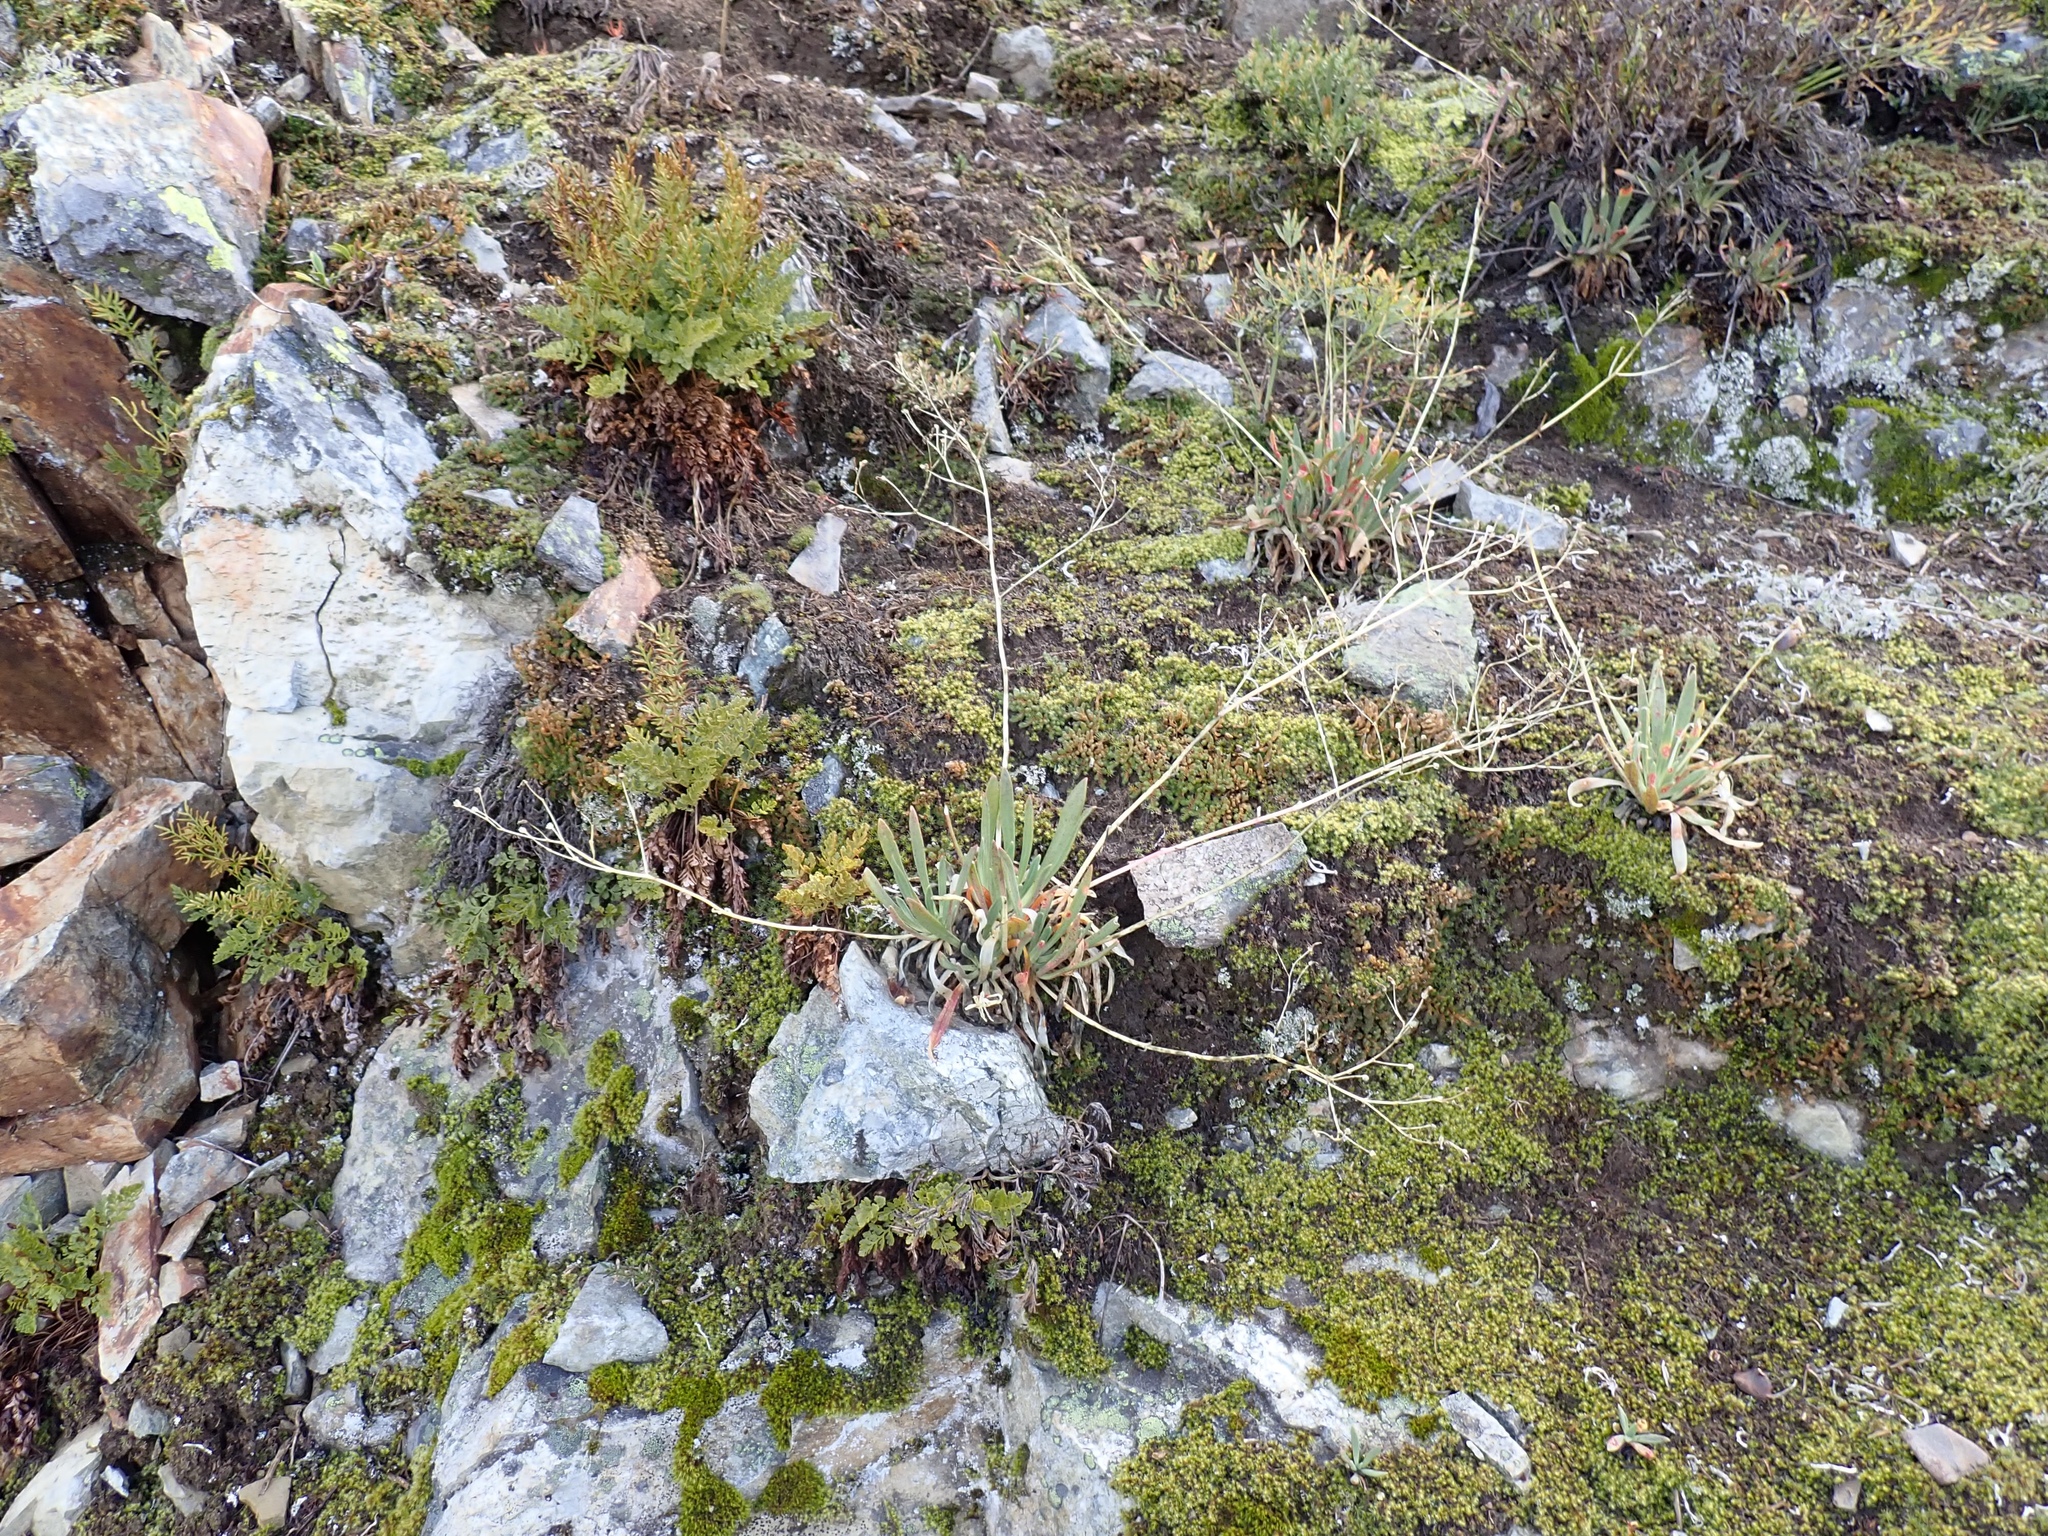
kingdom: Plantae
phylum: Tracheophyta
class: Magnoliopsida
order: Caryophyllales
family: Montiaceae
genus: Lewisia
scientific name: Lewisia columbiana
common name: Columbia lewisia
